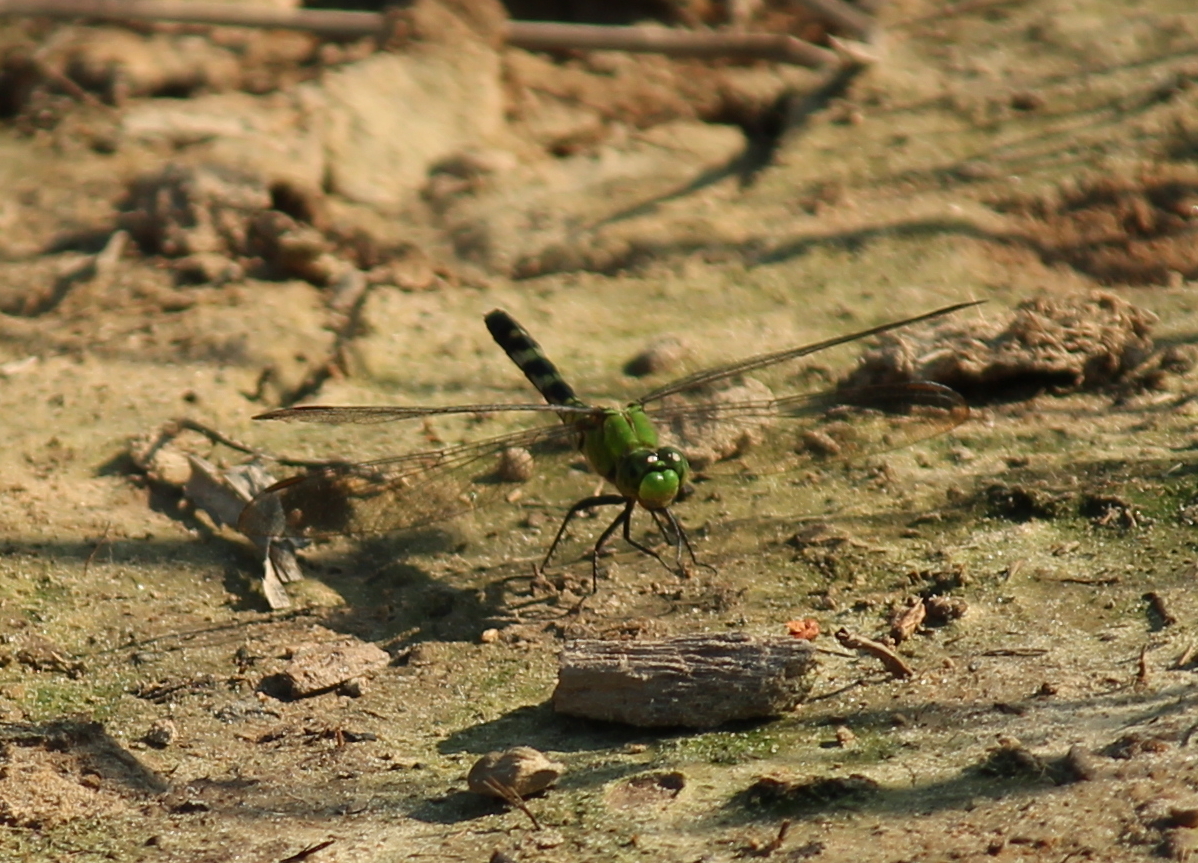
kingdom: Animalia
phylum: Arthropoda
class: Insecta
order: Odonata
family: Libellulidae
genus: Erythemis
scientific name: Erythemis simplicicollis
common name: Eastern pondhawk
